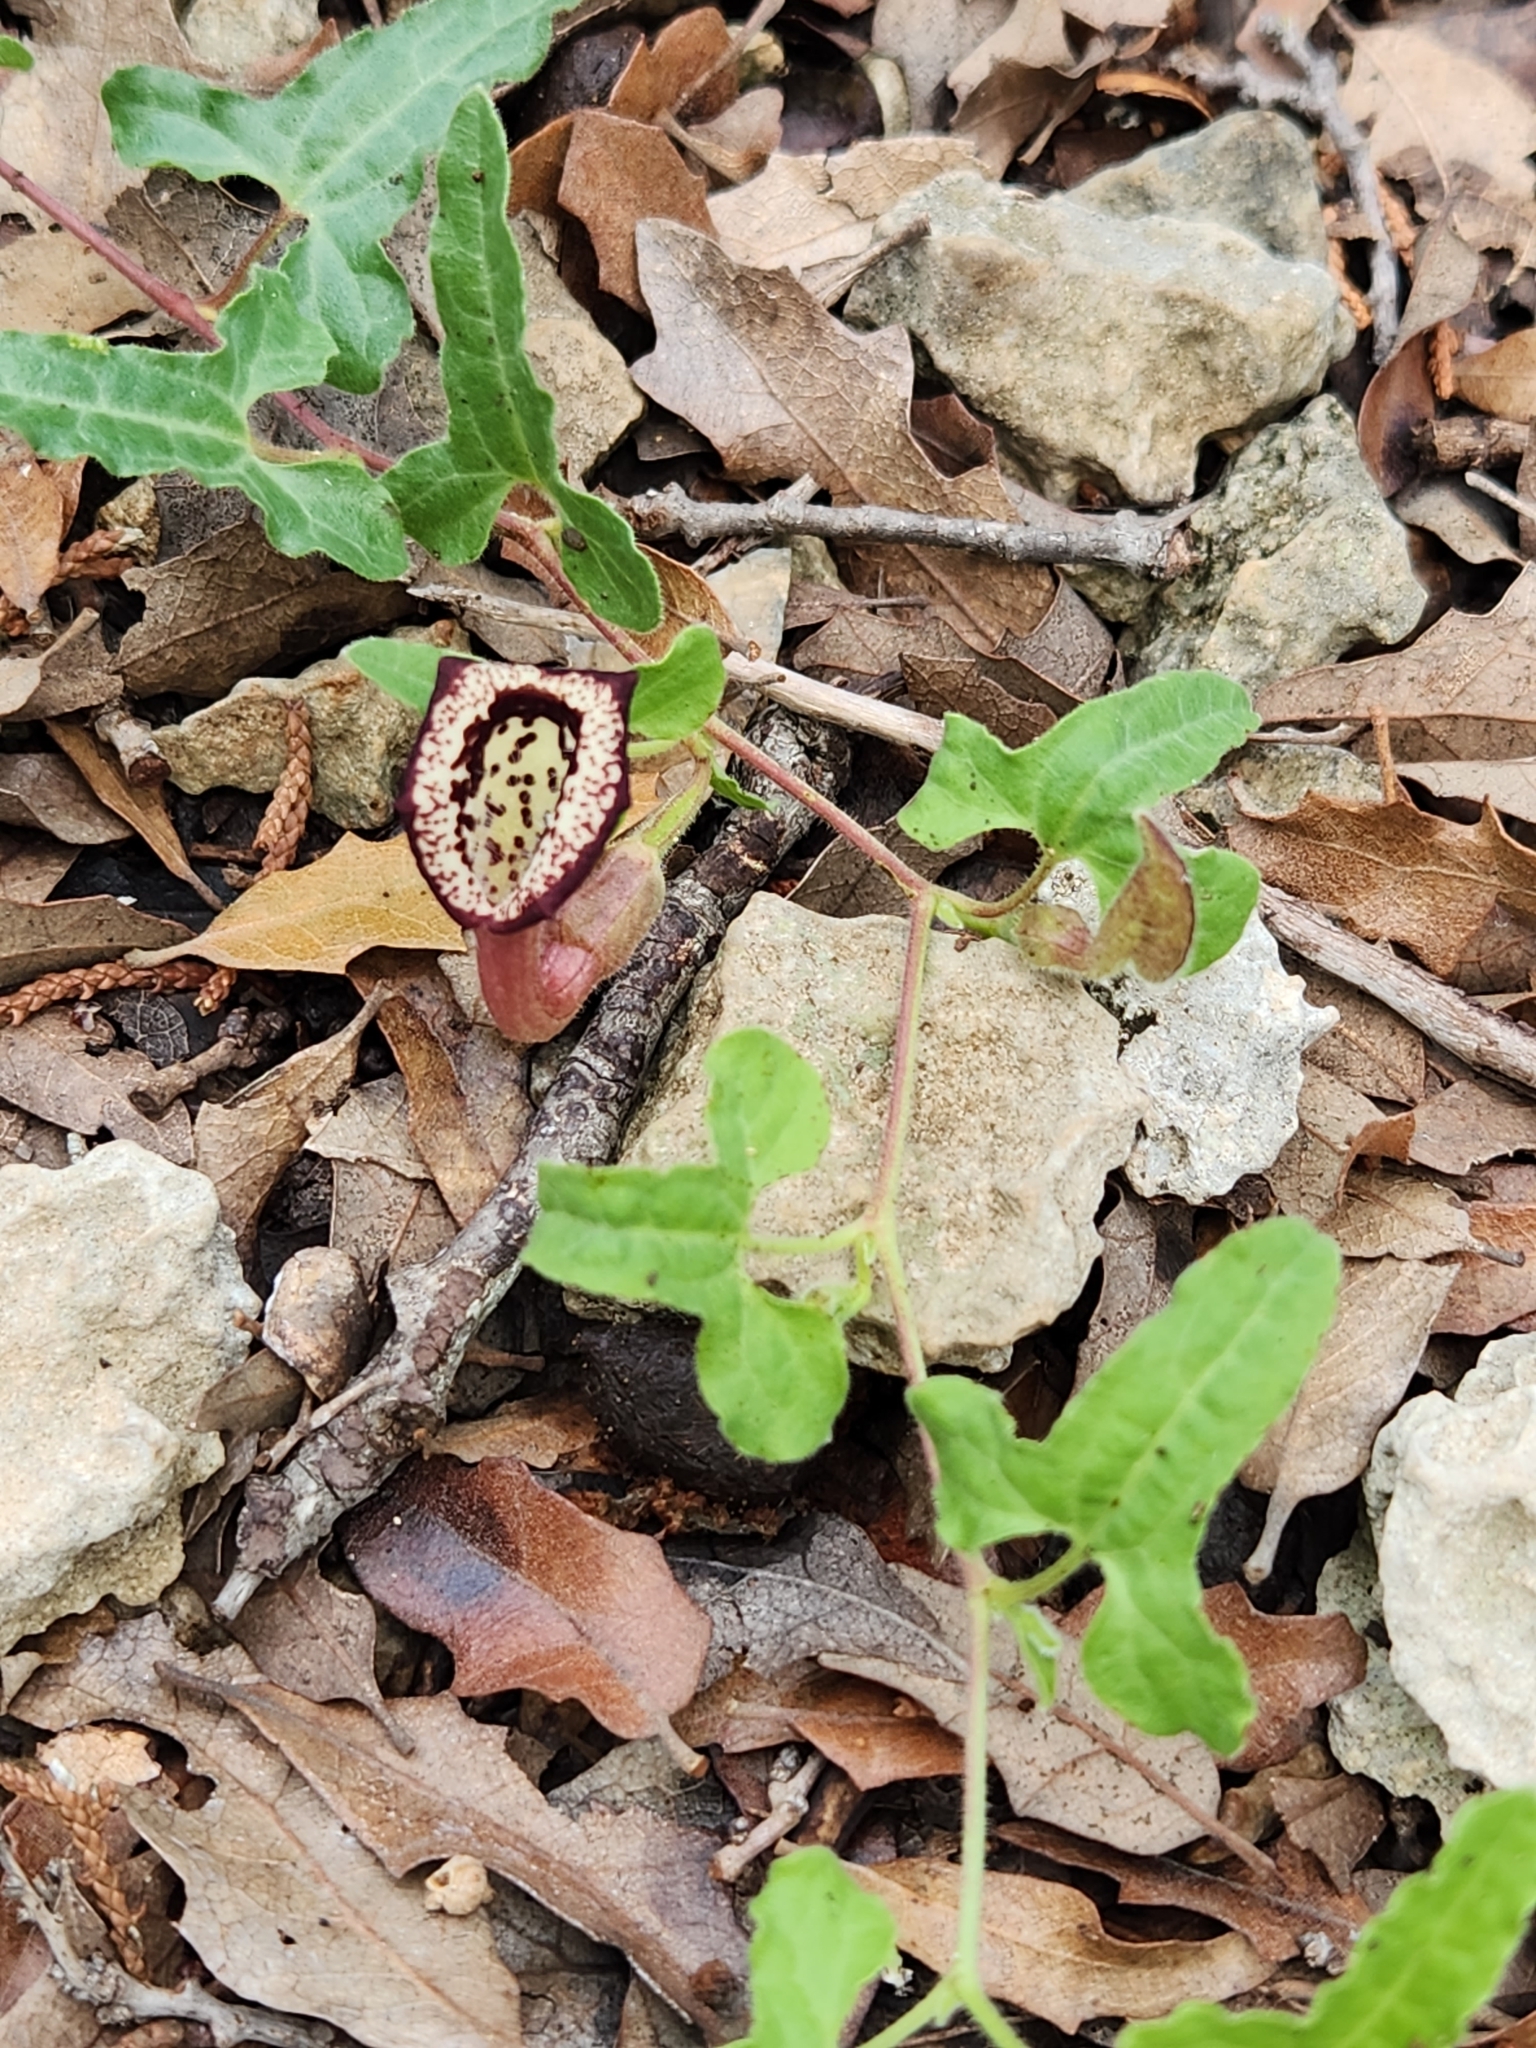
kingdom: Plantae
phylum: Tracheophyta
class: Magnoliopsida
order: Piperales
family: Aristolochiaceae
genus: Aristolochia
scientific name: Aristolochia coryi
